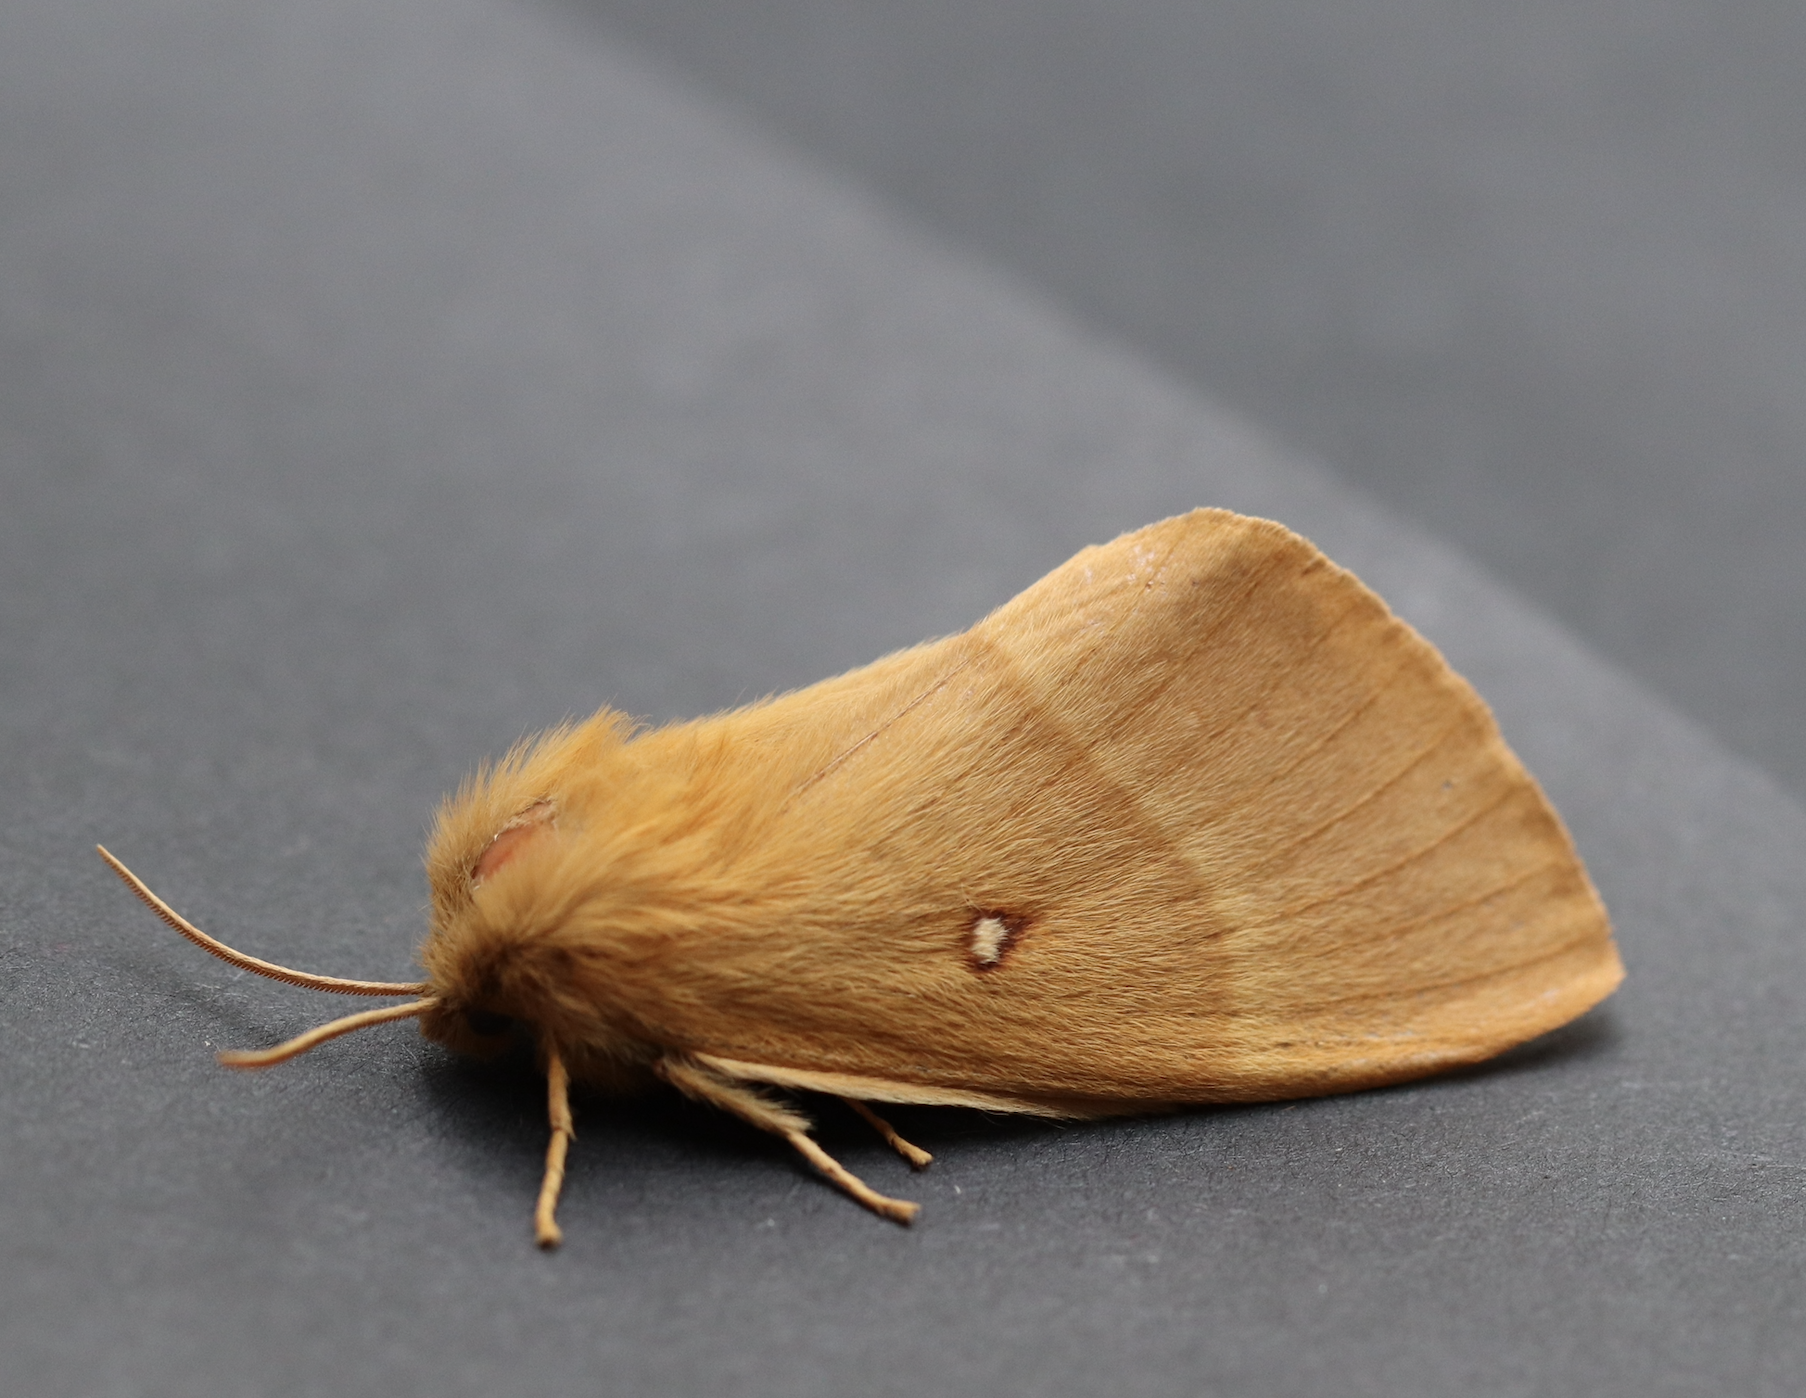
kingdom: Animalia
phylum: Arthropoda
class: Insecta
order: Lepidoptera
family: Lasiocampidae
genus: Lasiocampa
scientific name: Lasiocampa quercus
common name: Oak eggar
